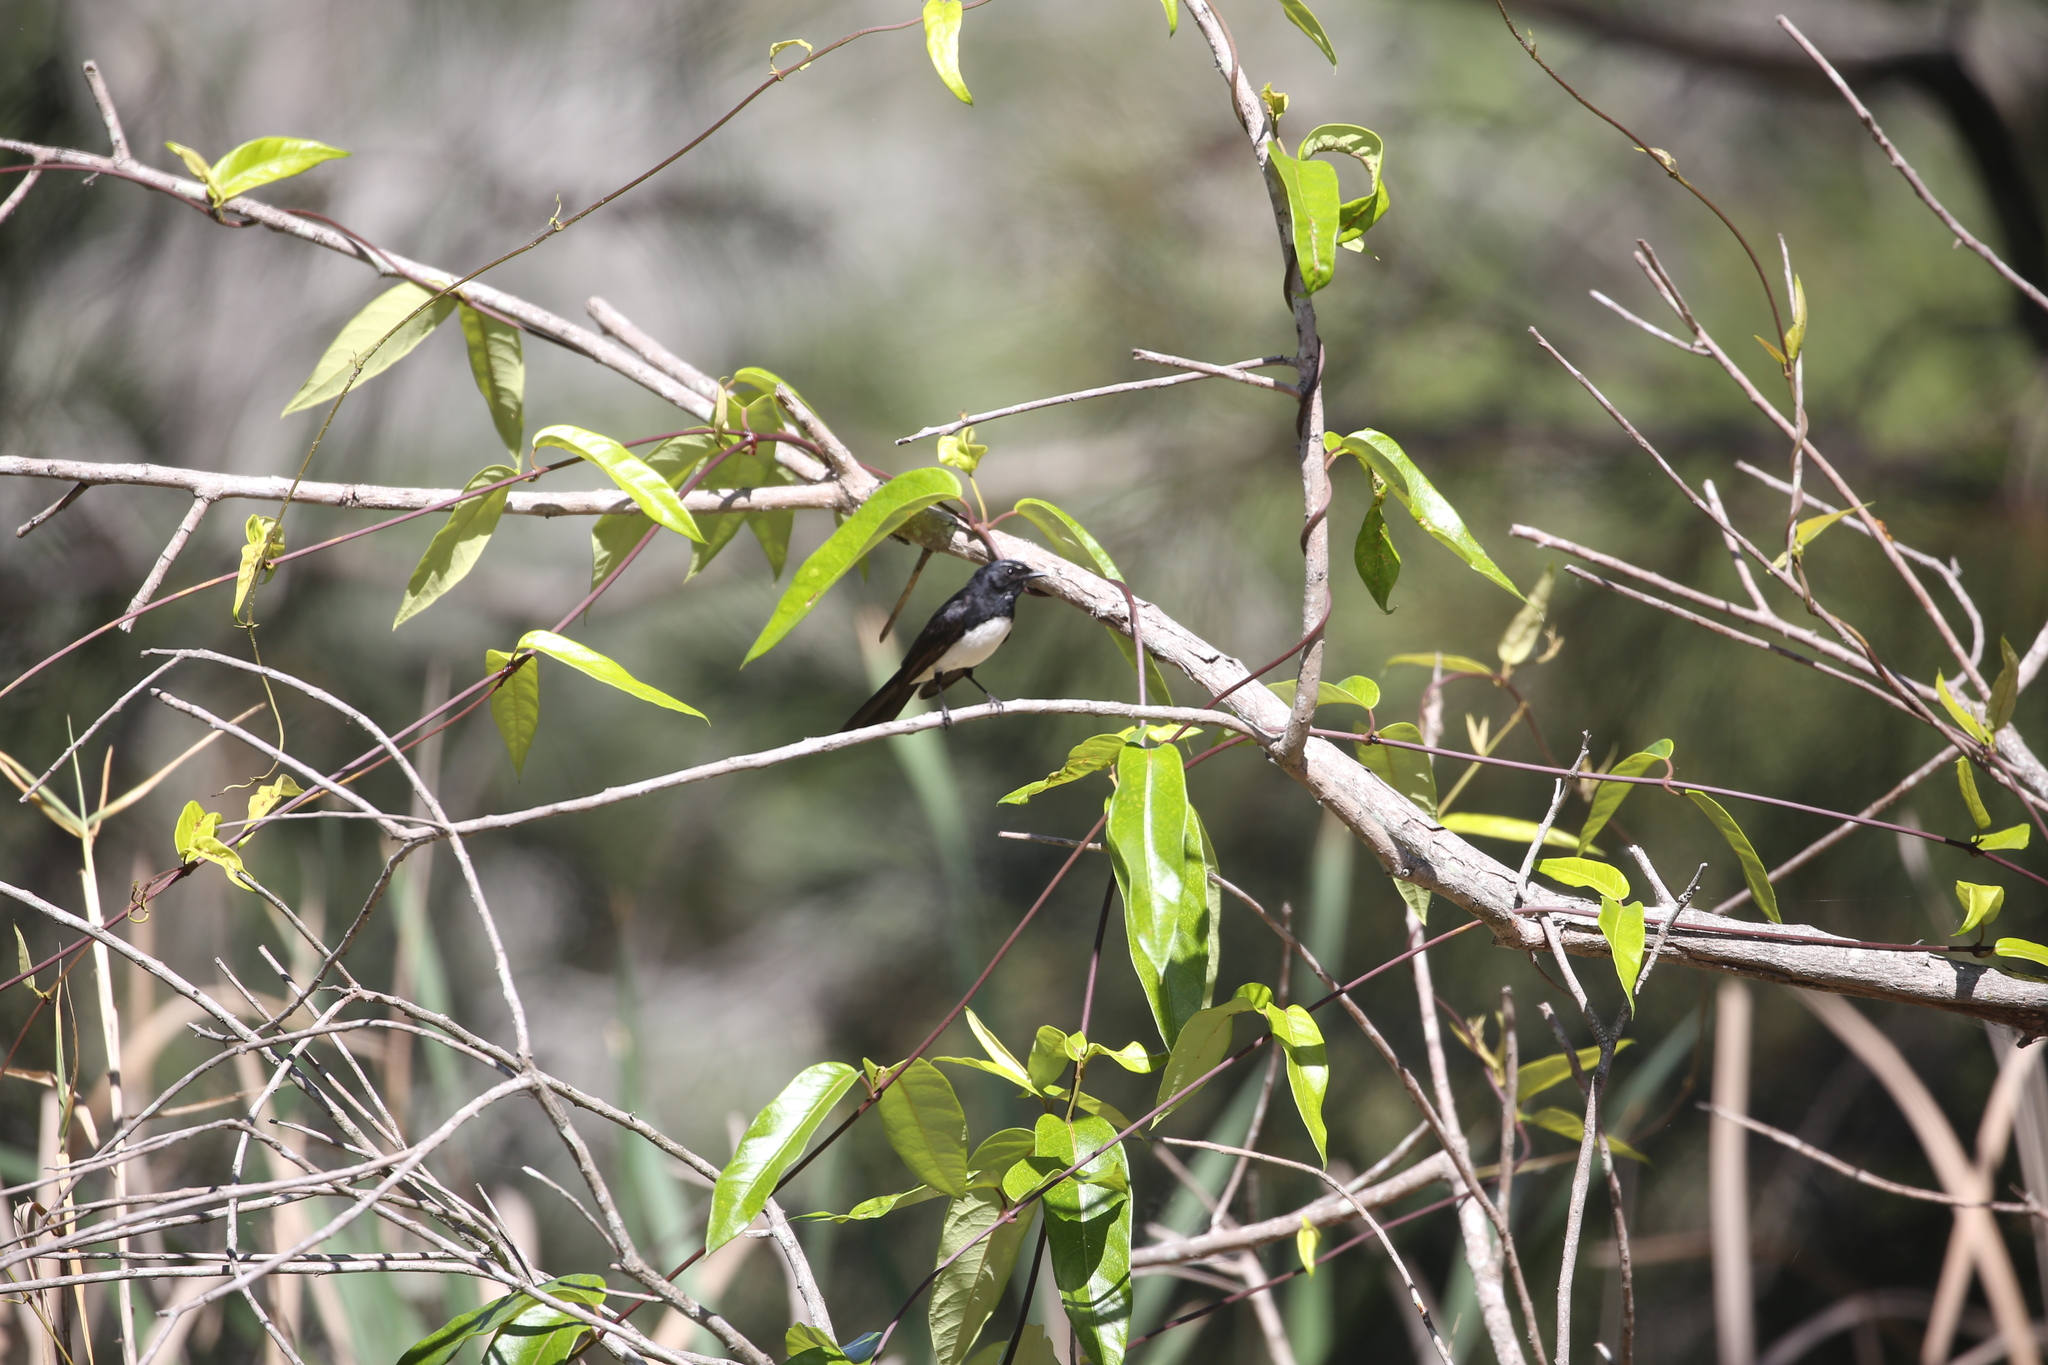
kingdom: Animalia
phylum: Chordata
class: Aves
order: Passeriformes
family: Rhipiduridae
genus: Rhipidura
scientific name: Rhipidura leucophrys
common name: Willie wagtail
